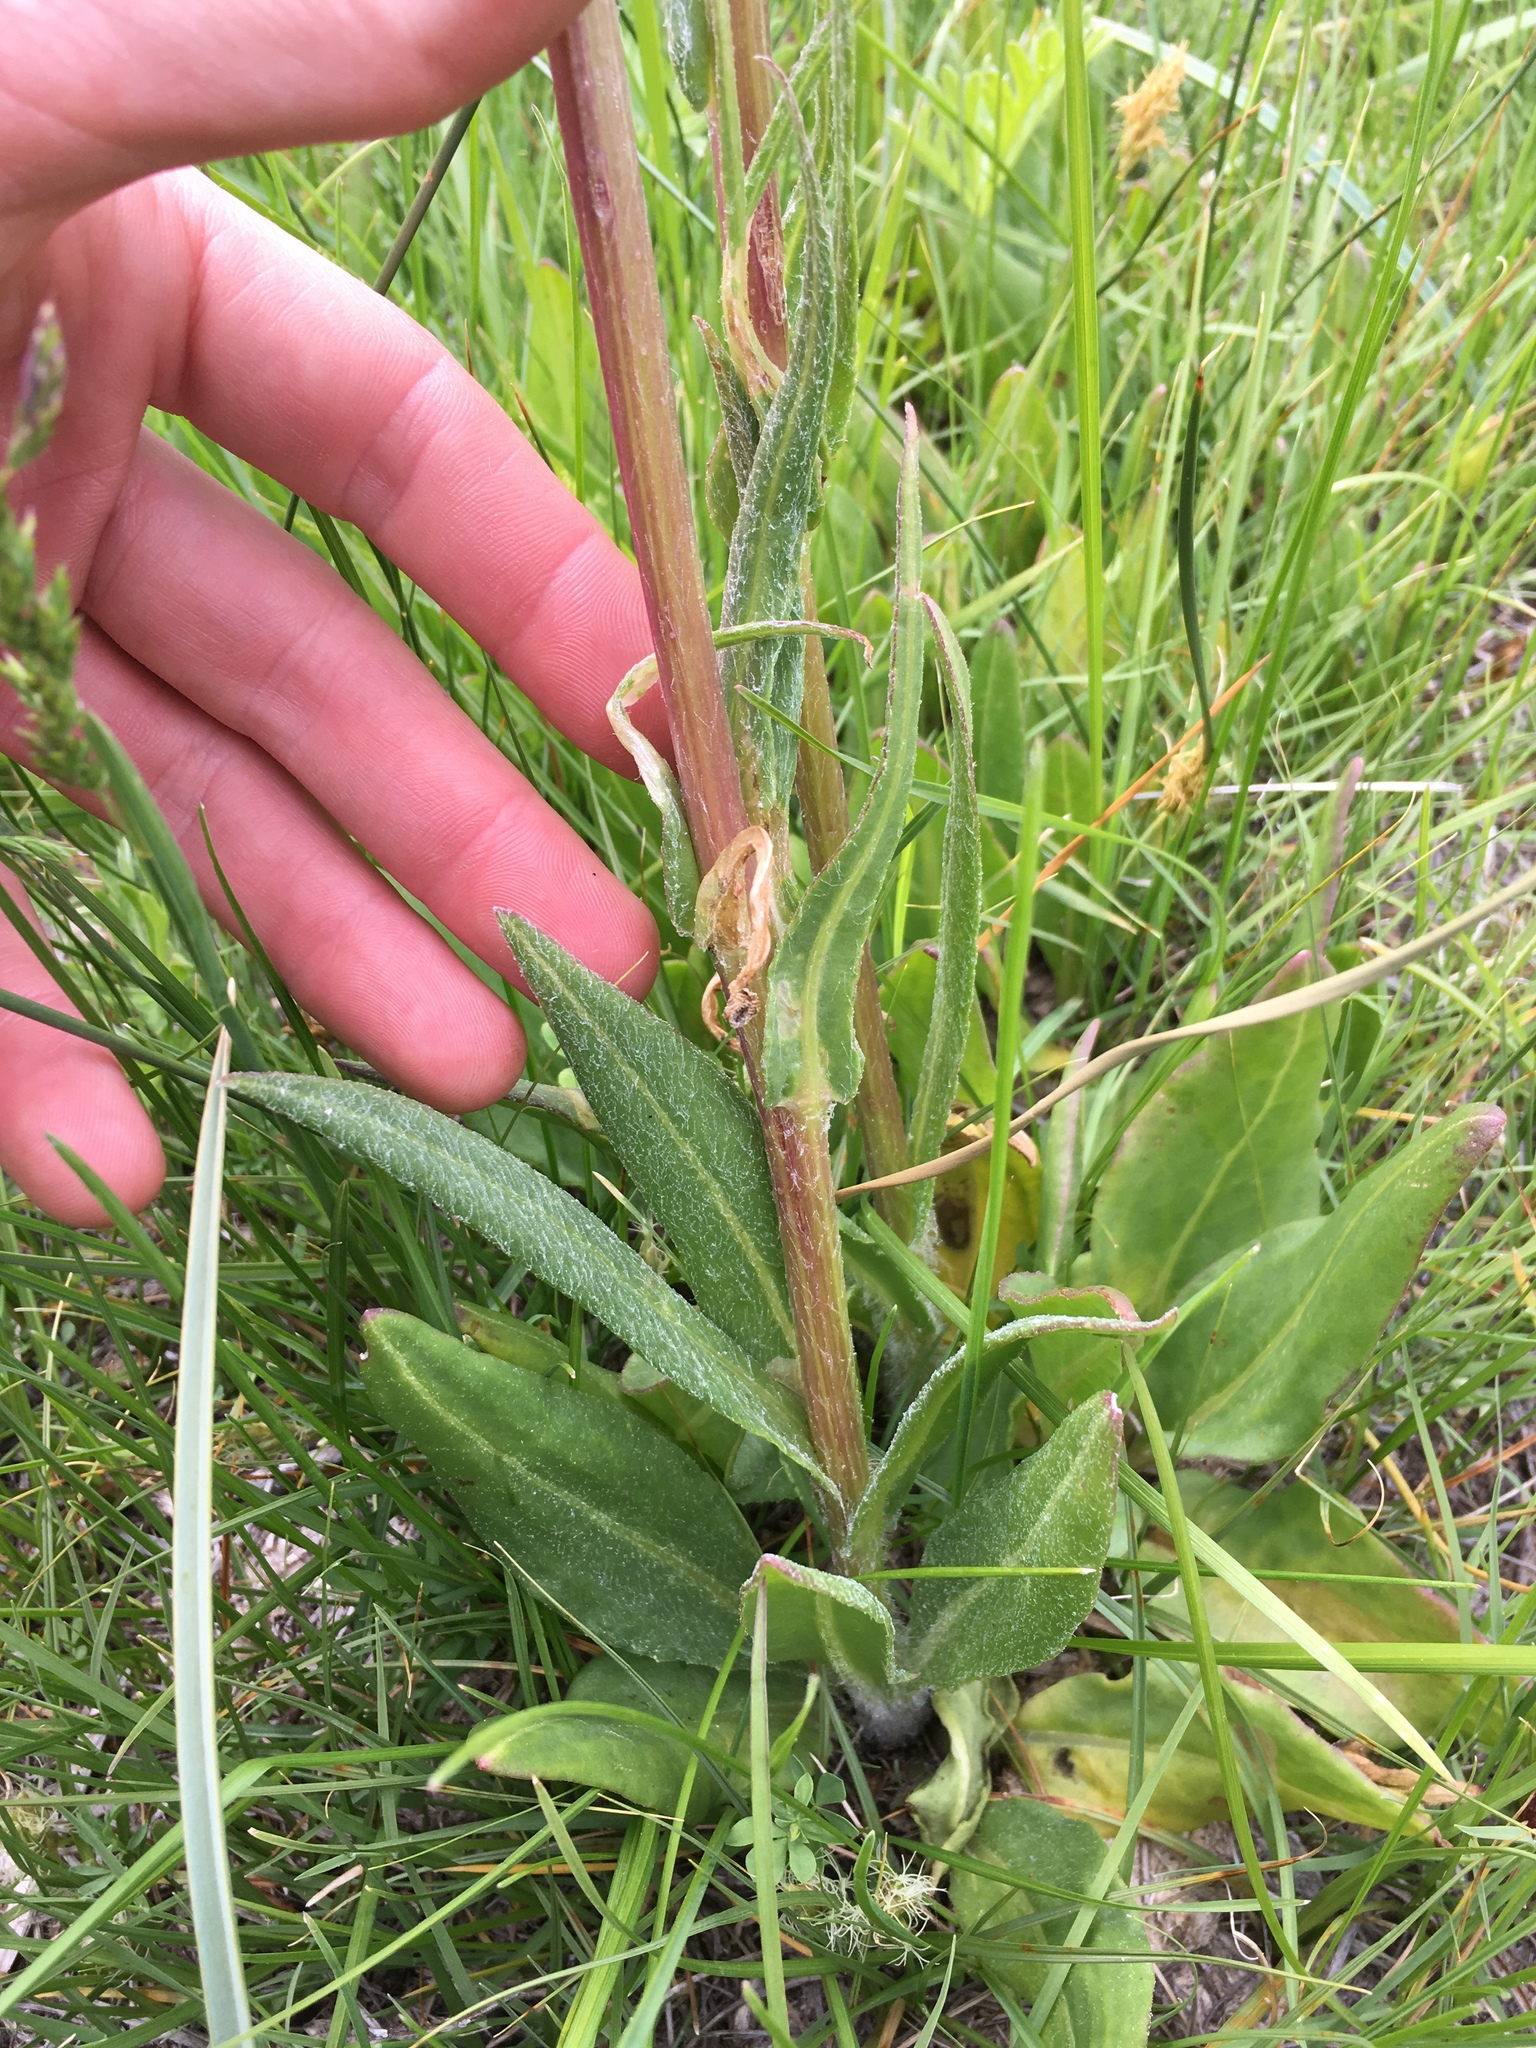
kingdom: Plantae
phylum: Tracheophyta
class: Magnoliopsida
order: Asterales
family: Asteraceae
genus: Senecio
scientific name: Senecio integerrimus
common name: Gaugeplant
